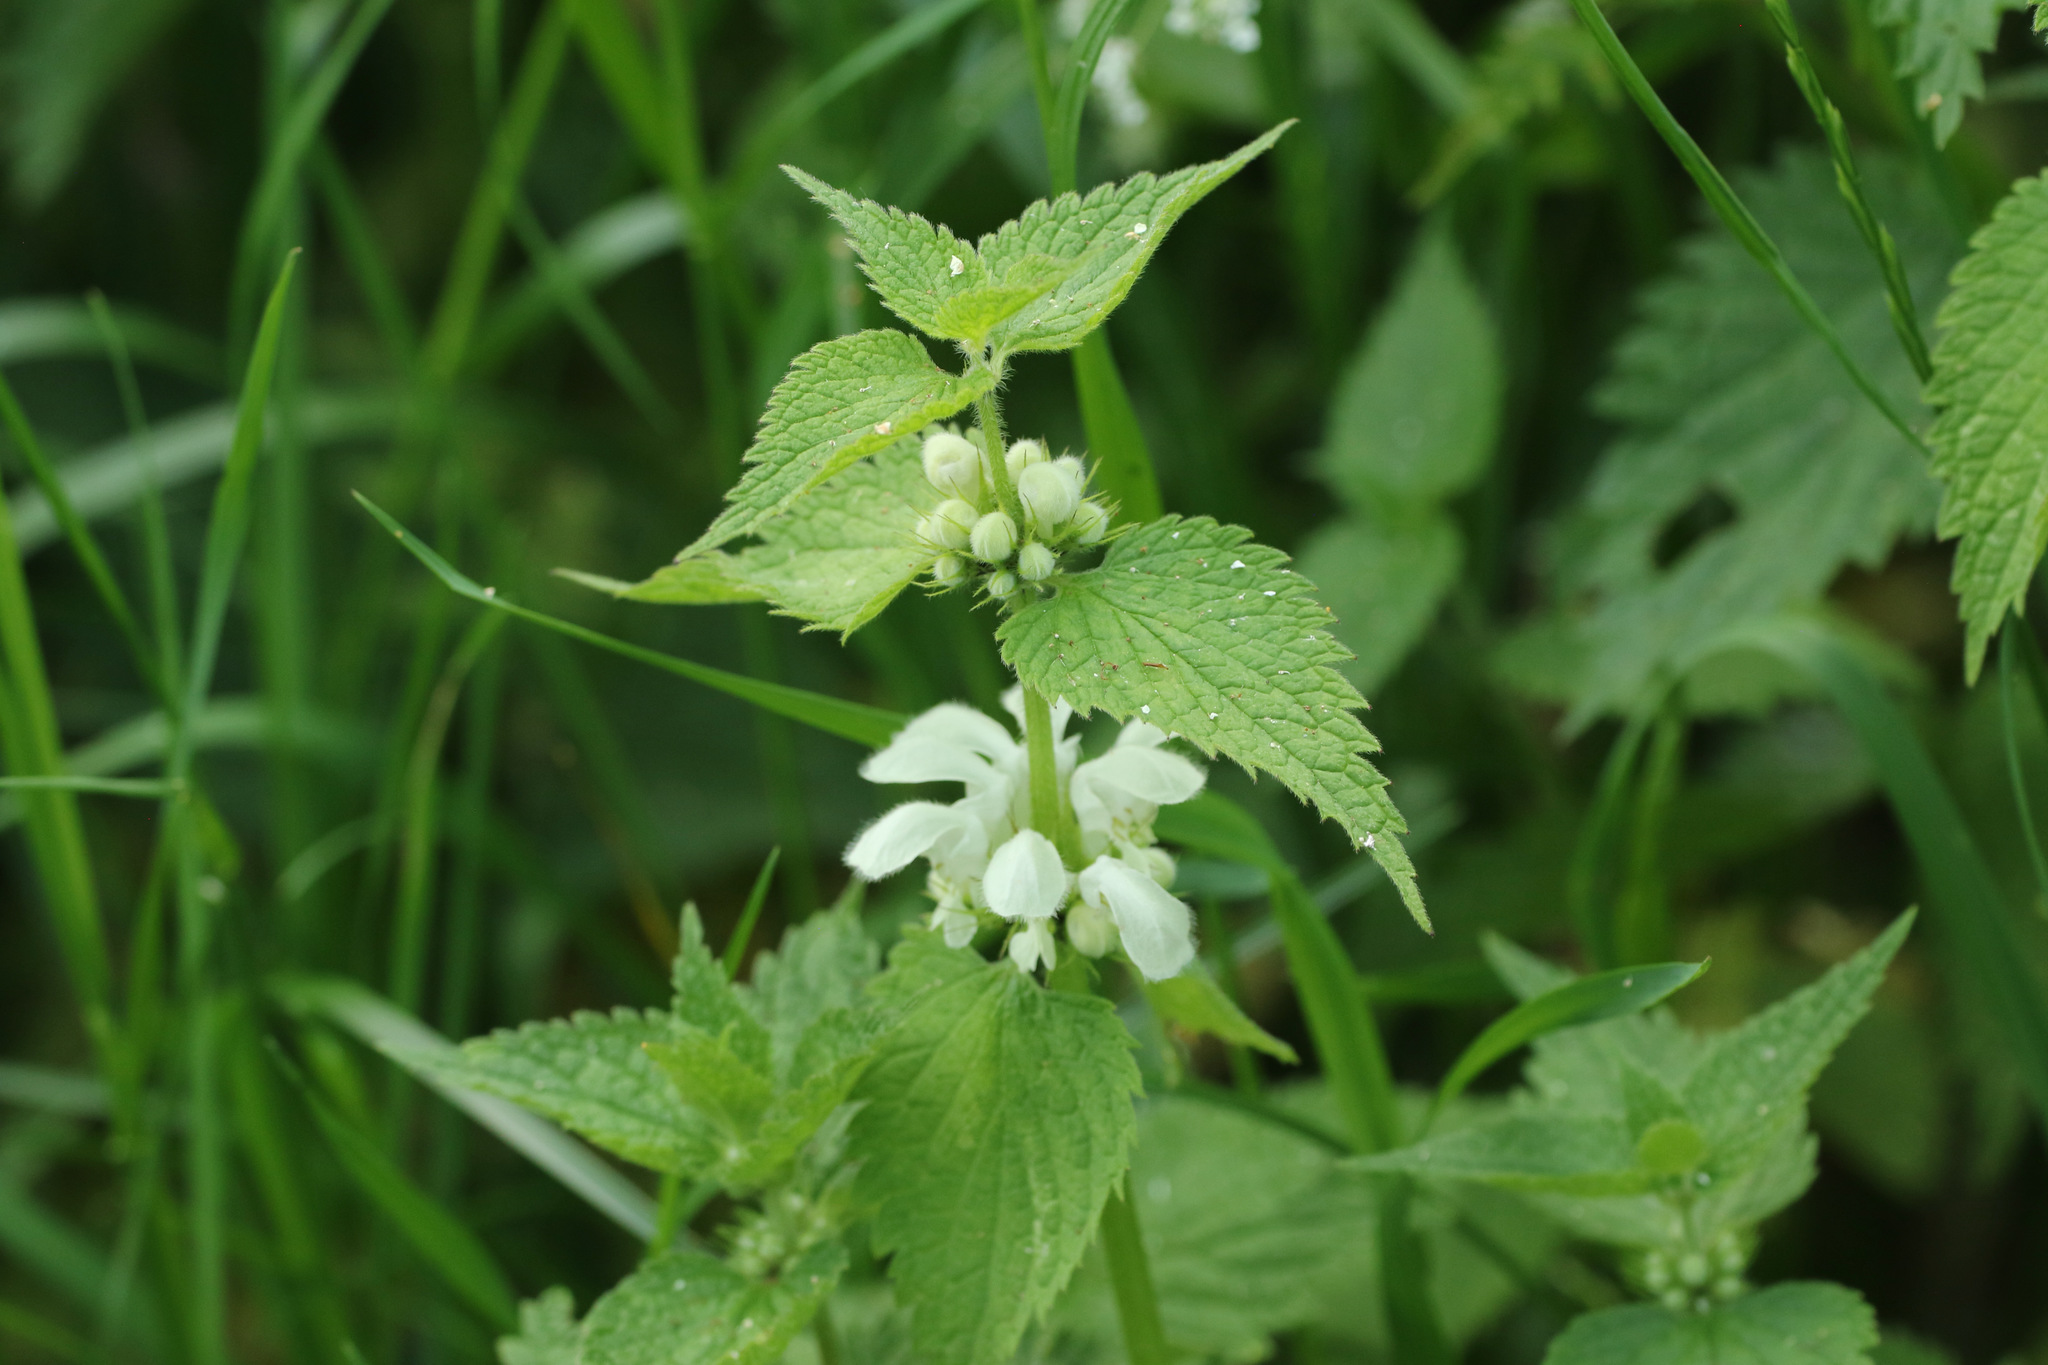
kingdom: Plantae
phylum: Tracheophyta
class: Magnoliopsida
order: Lamiales
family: Lamiaceae
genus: Lamium
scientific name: Lamium album
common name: White dead-nettle
